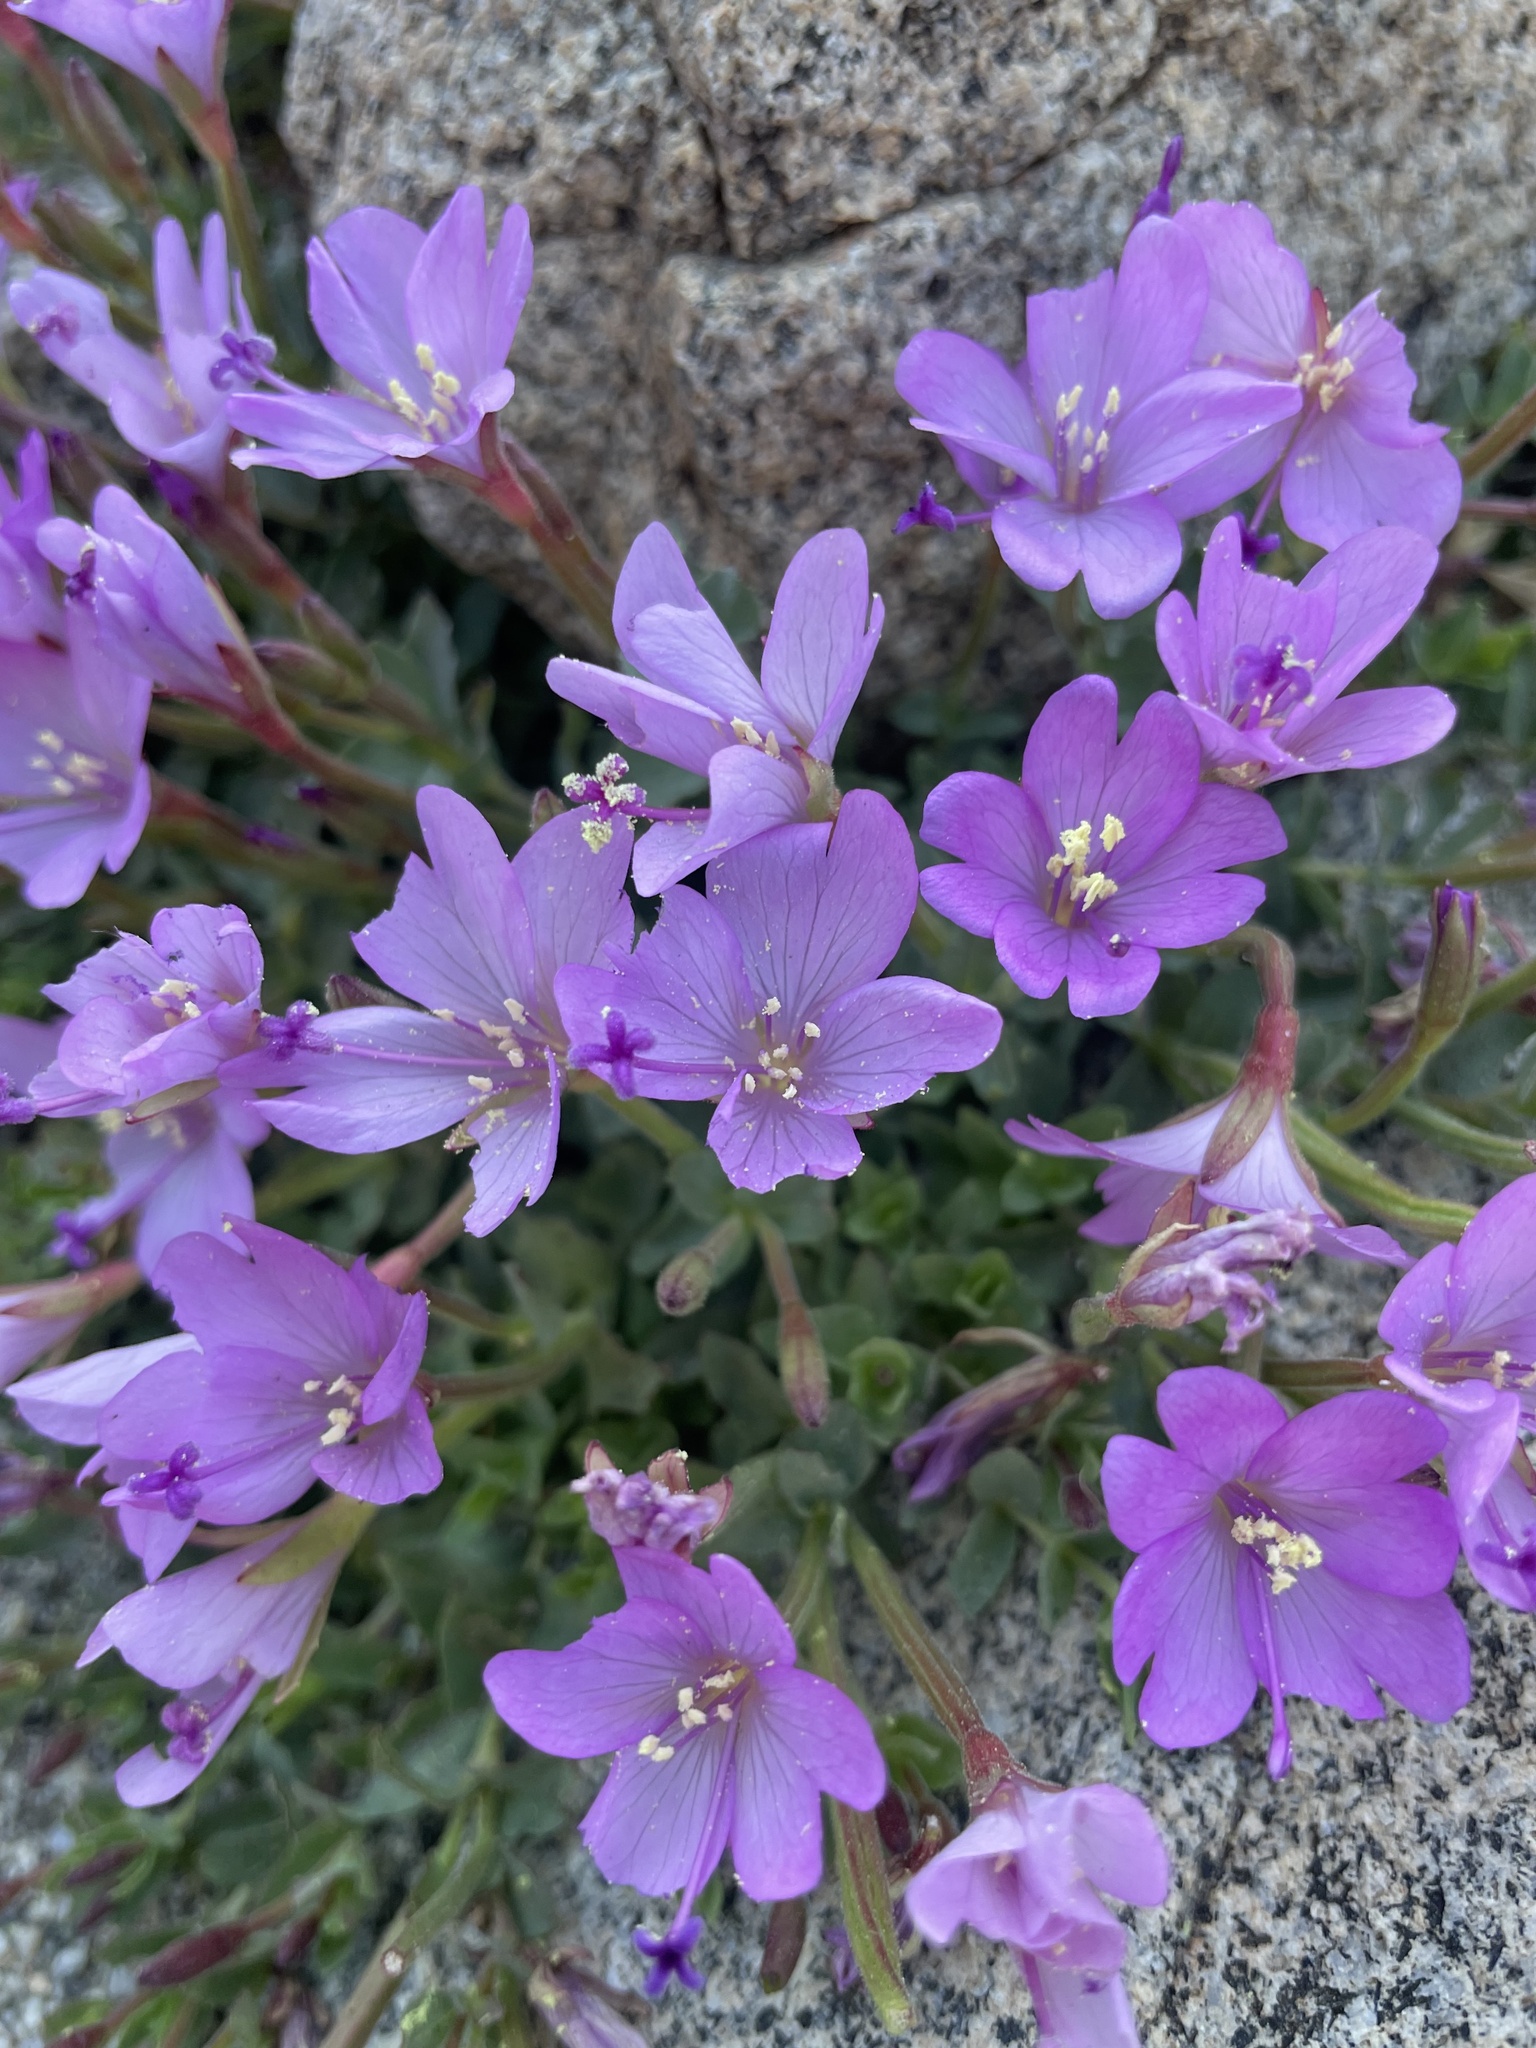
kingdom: Plantae
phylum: Tracheophyta
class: Magnoliopsida
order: Myrtales
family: Onagraceae
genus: Epilobium
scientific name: Epilobium obcordatum
